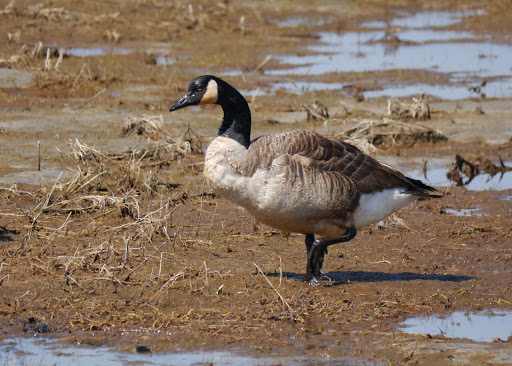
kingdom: Animalia
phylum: Chordata
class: Aves
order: Anseriformes
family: Anatidae
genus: Branta
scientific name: Branta canadensis
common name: Canada goose
